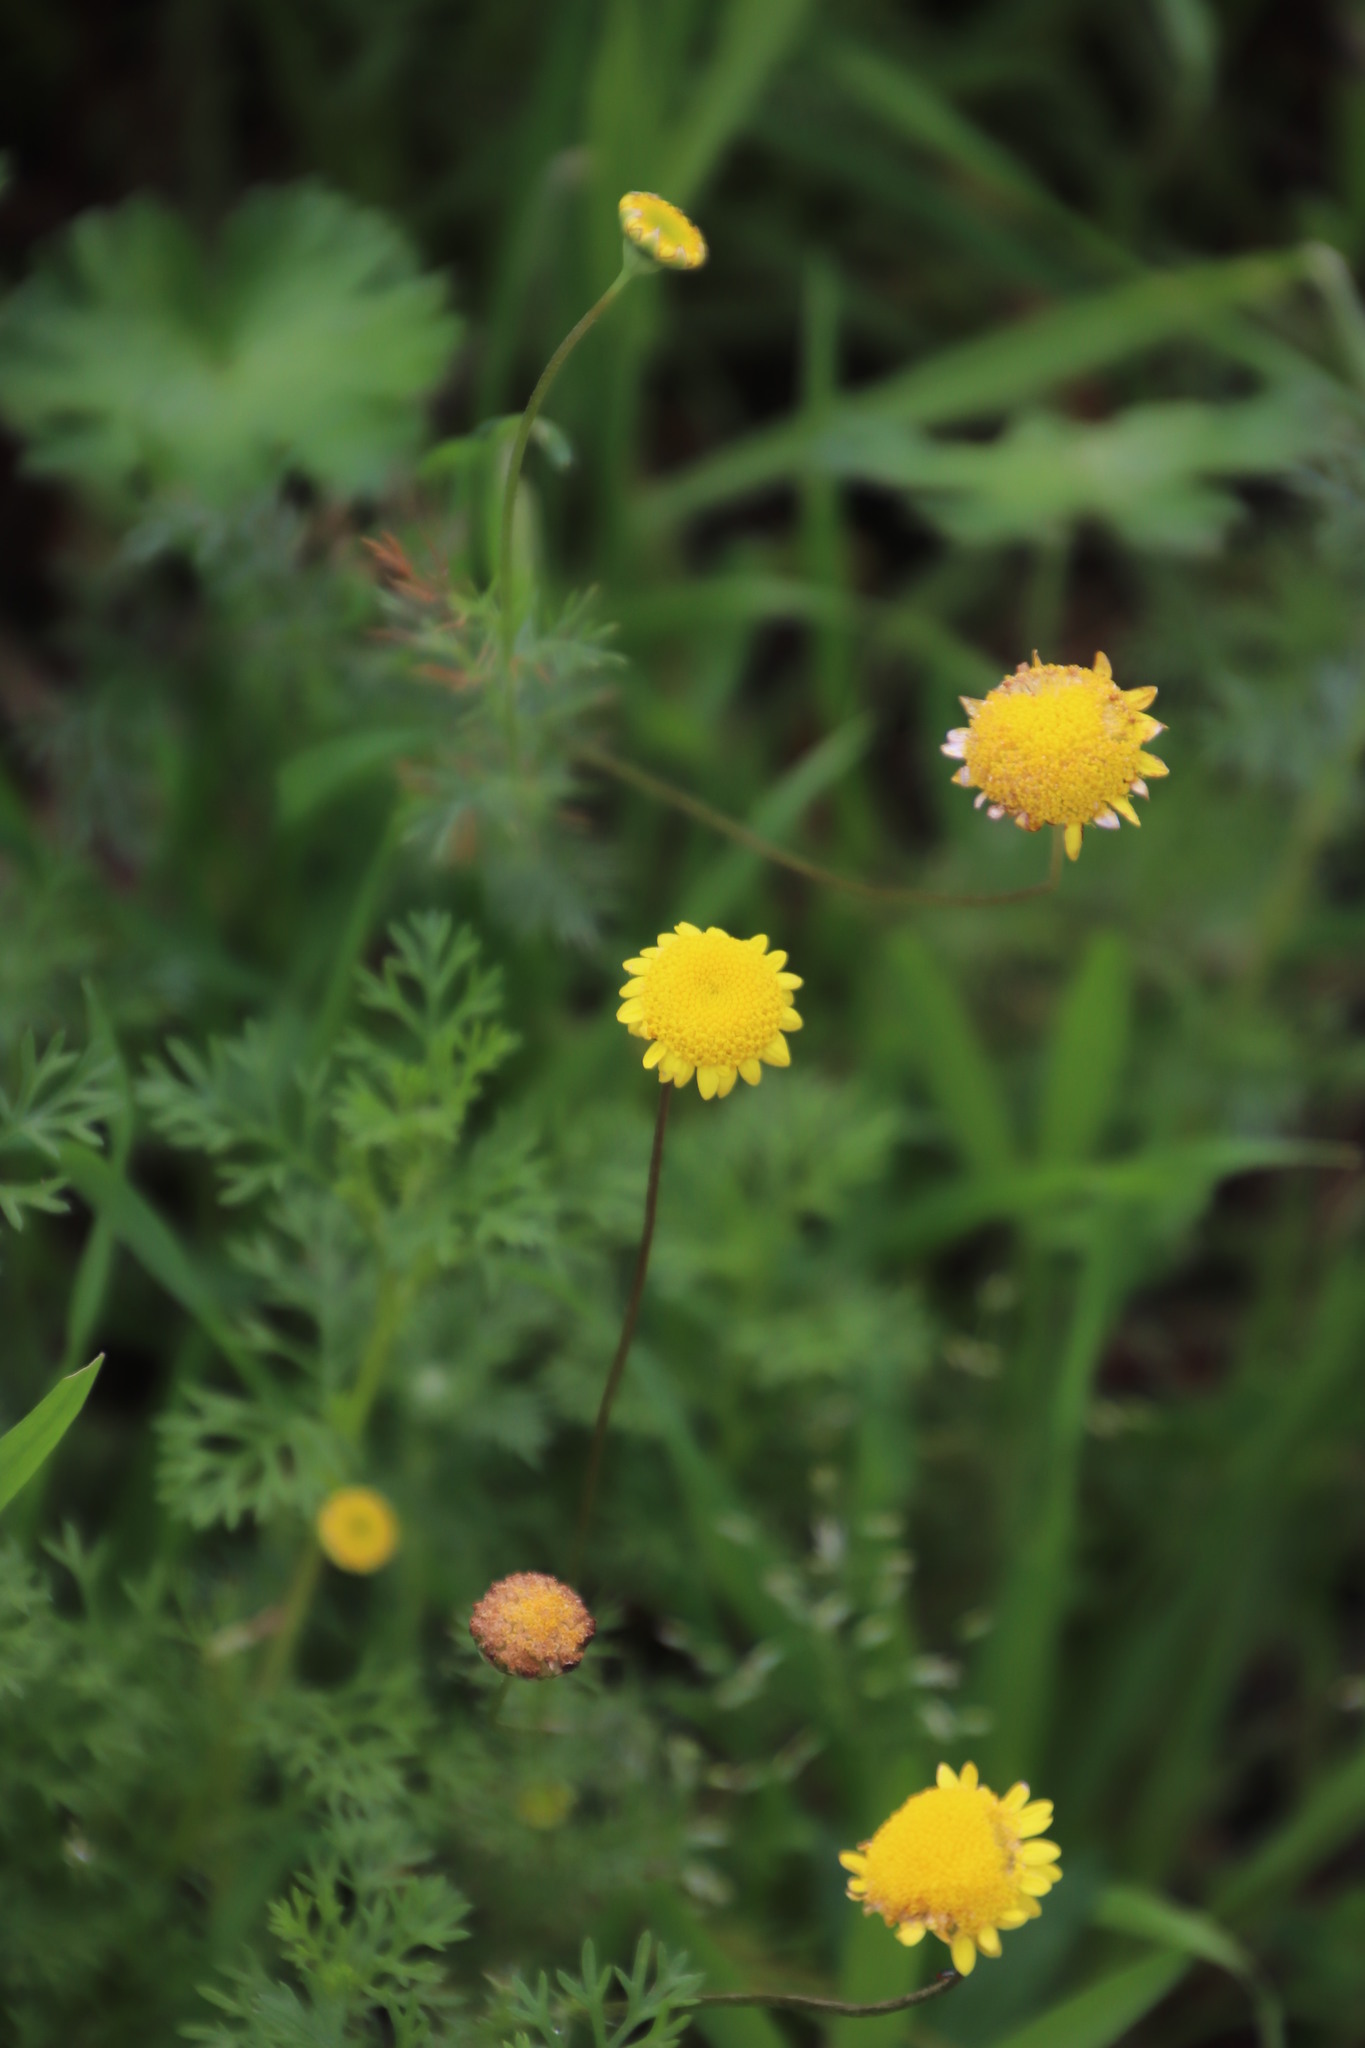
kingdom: Plantae
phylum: Tracheophyta
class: Magnoliopsida
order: Asterales
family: Asteraceae
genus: Cotula
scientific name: Cotula pruinosa
